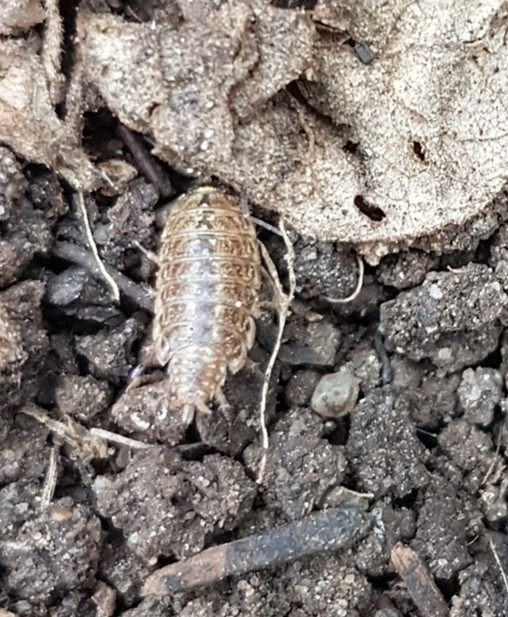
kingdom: Animalia
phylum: Arthropoda
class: Malacostraca
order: Isopoda
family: Philosciidae
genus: Philoscia
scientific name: Philoscia muscorum
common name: Common striped woodlouse
